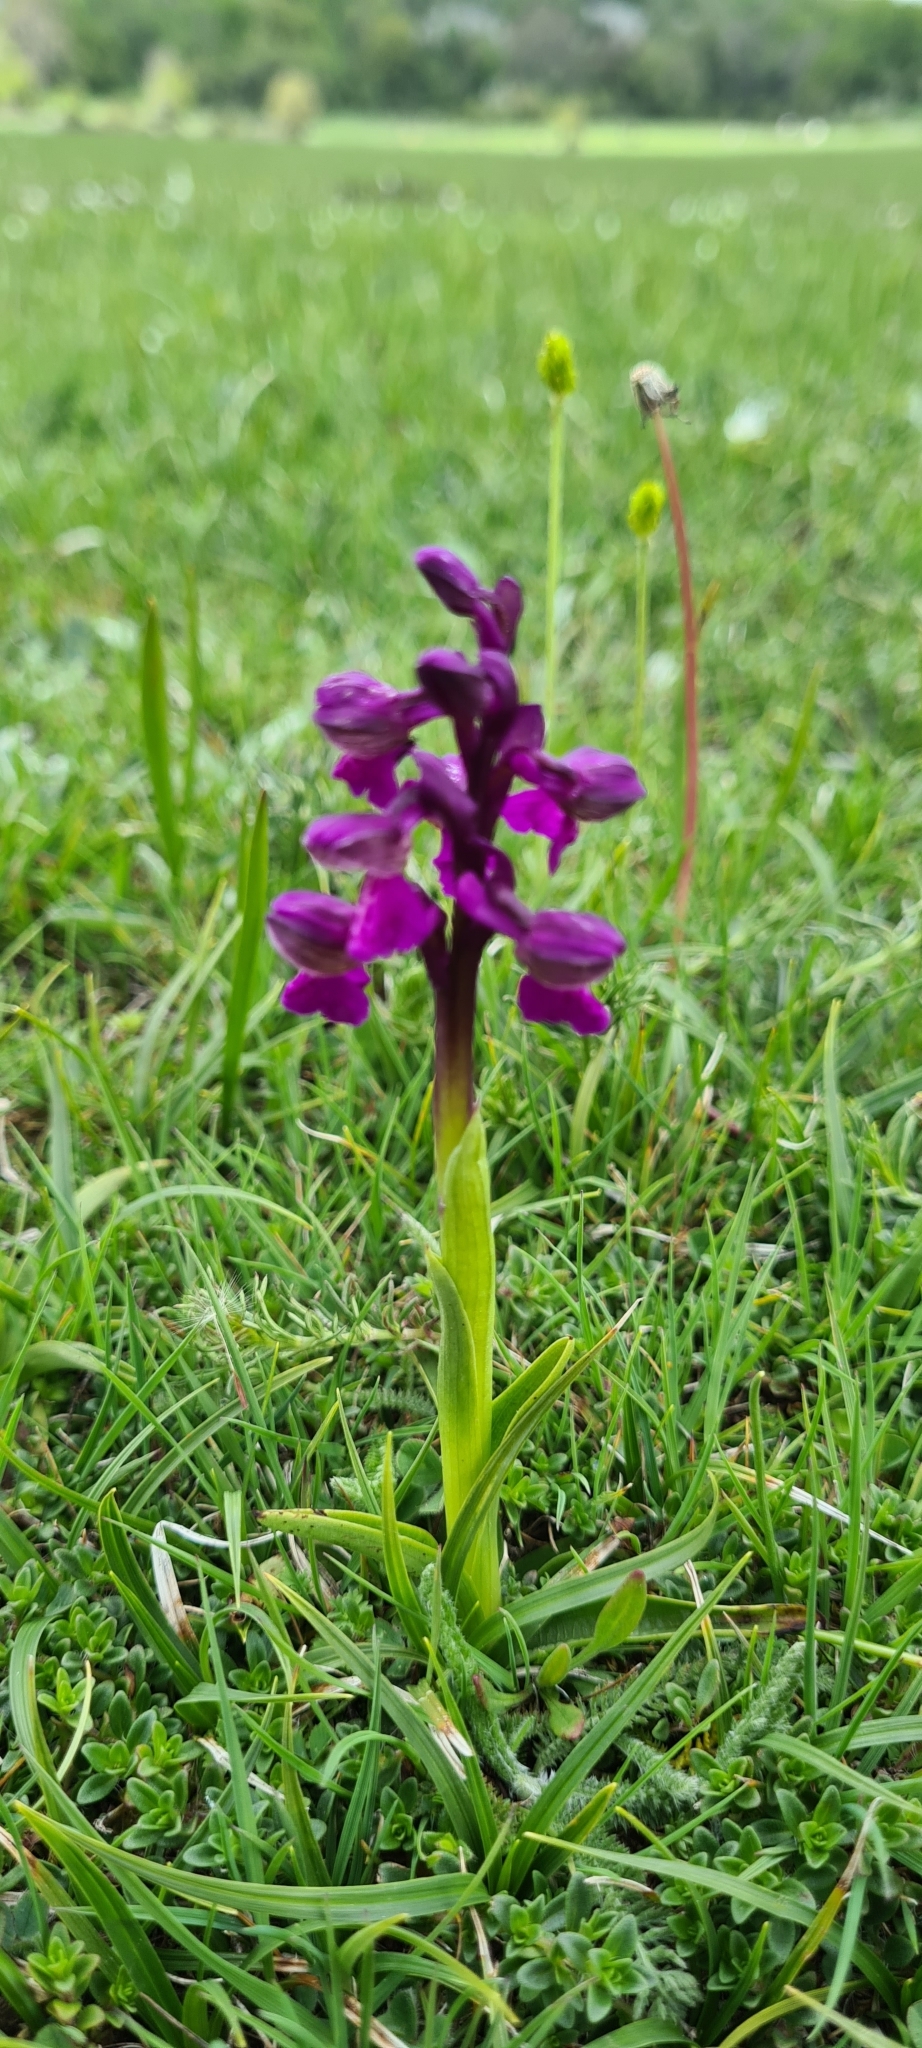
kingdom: Plantae
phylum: Tracheophyta
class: Liliopsida
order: Asparagales
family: Orchidaceae
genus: Anacamptis
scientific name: Anacamptis morio
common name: Green-winged orchid
